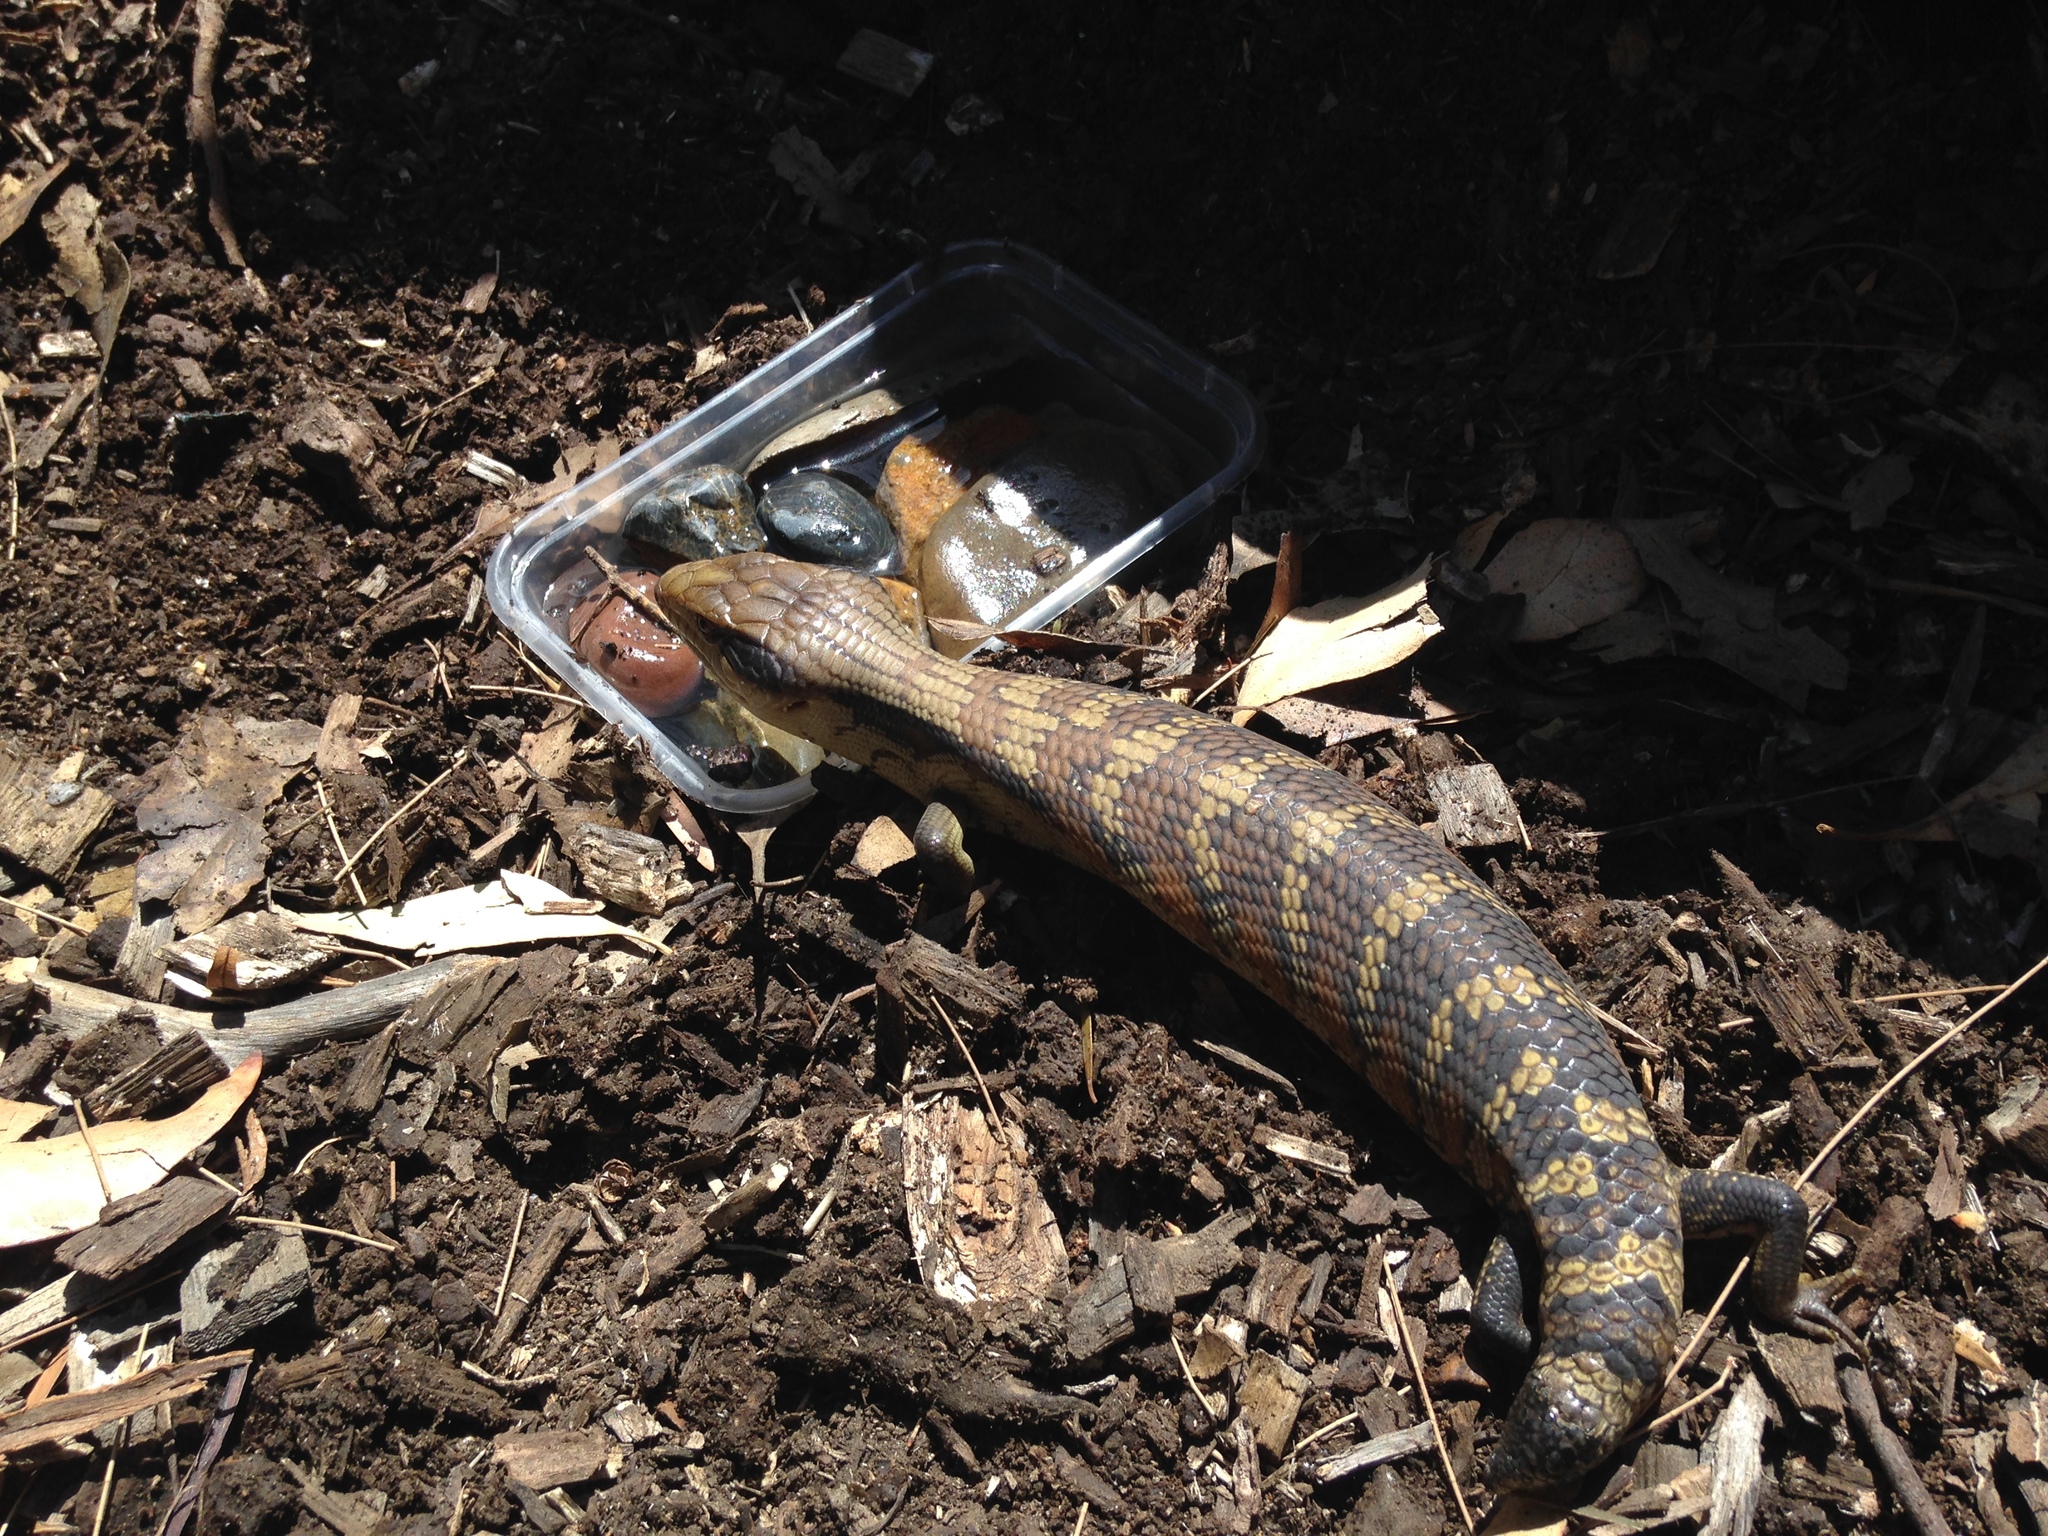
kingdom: Animalia
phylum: Chordata
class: Squamata
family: Scincidae
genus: Tiliqua
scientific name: Tiliqua scincoides
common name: Common bluetongue
